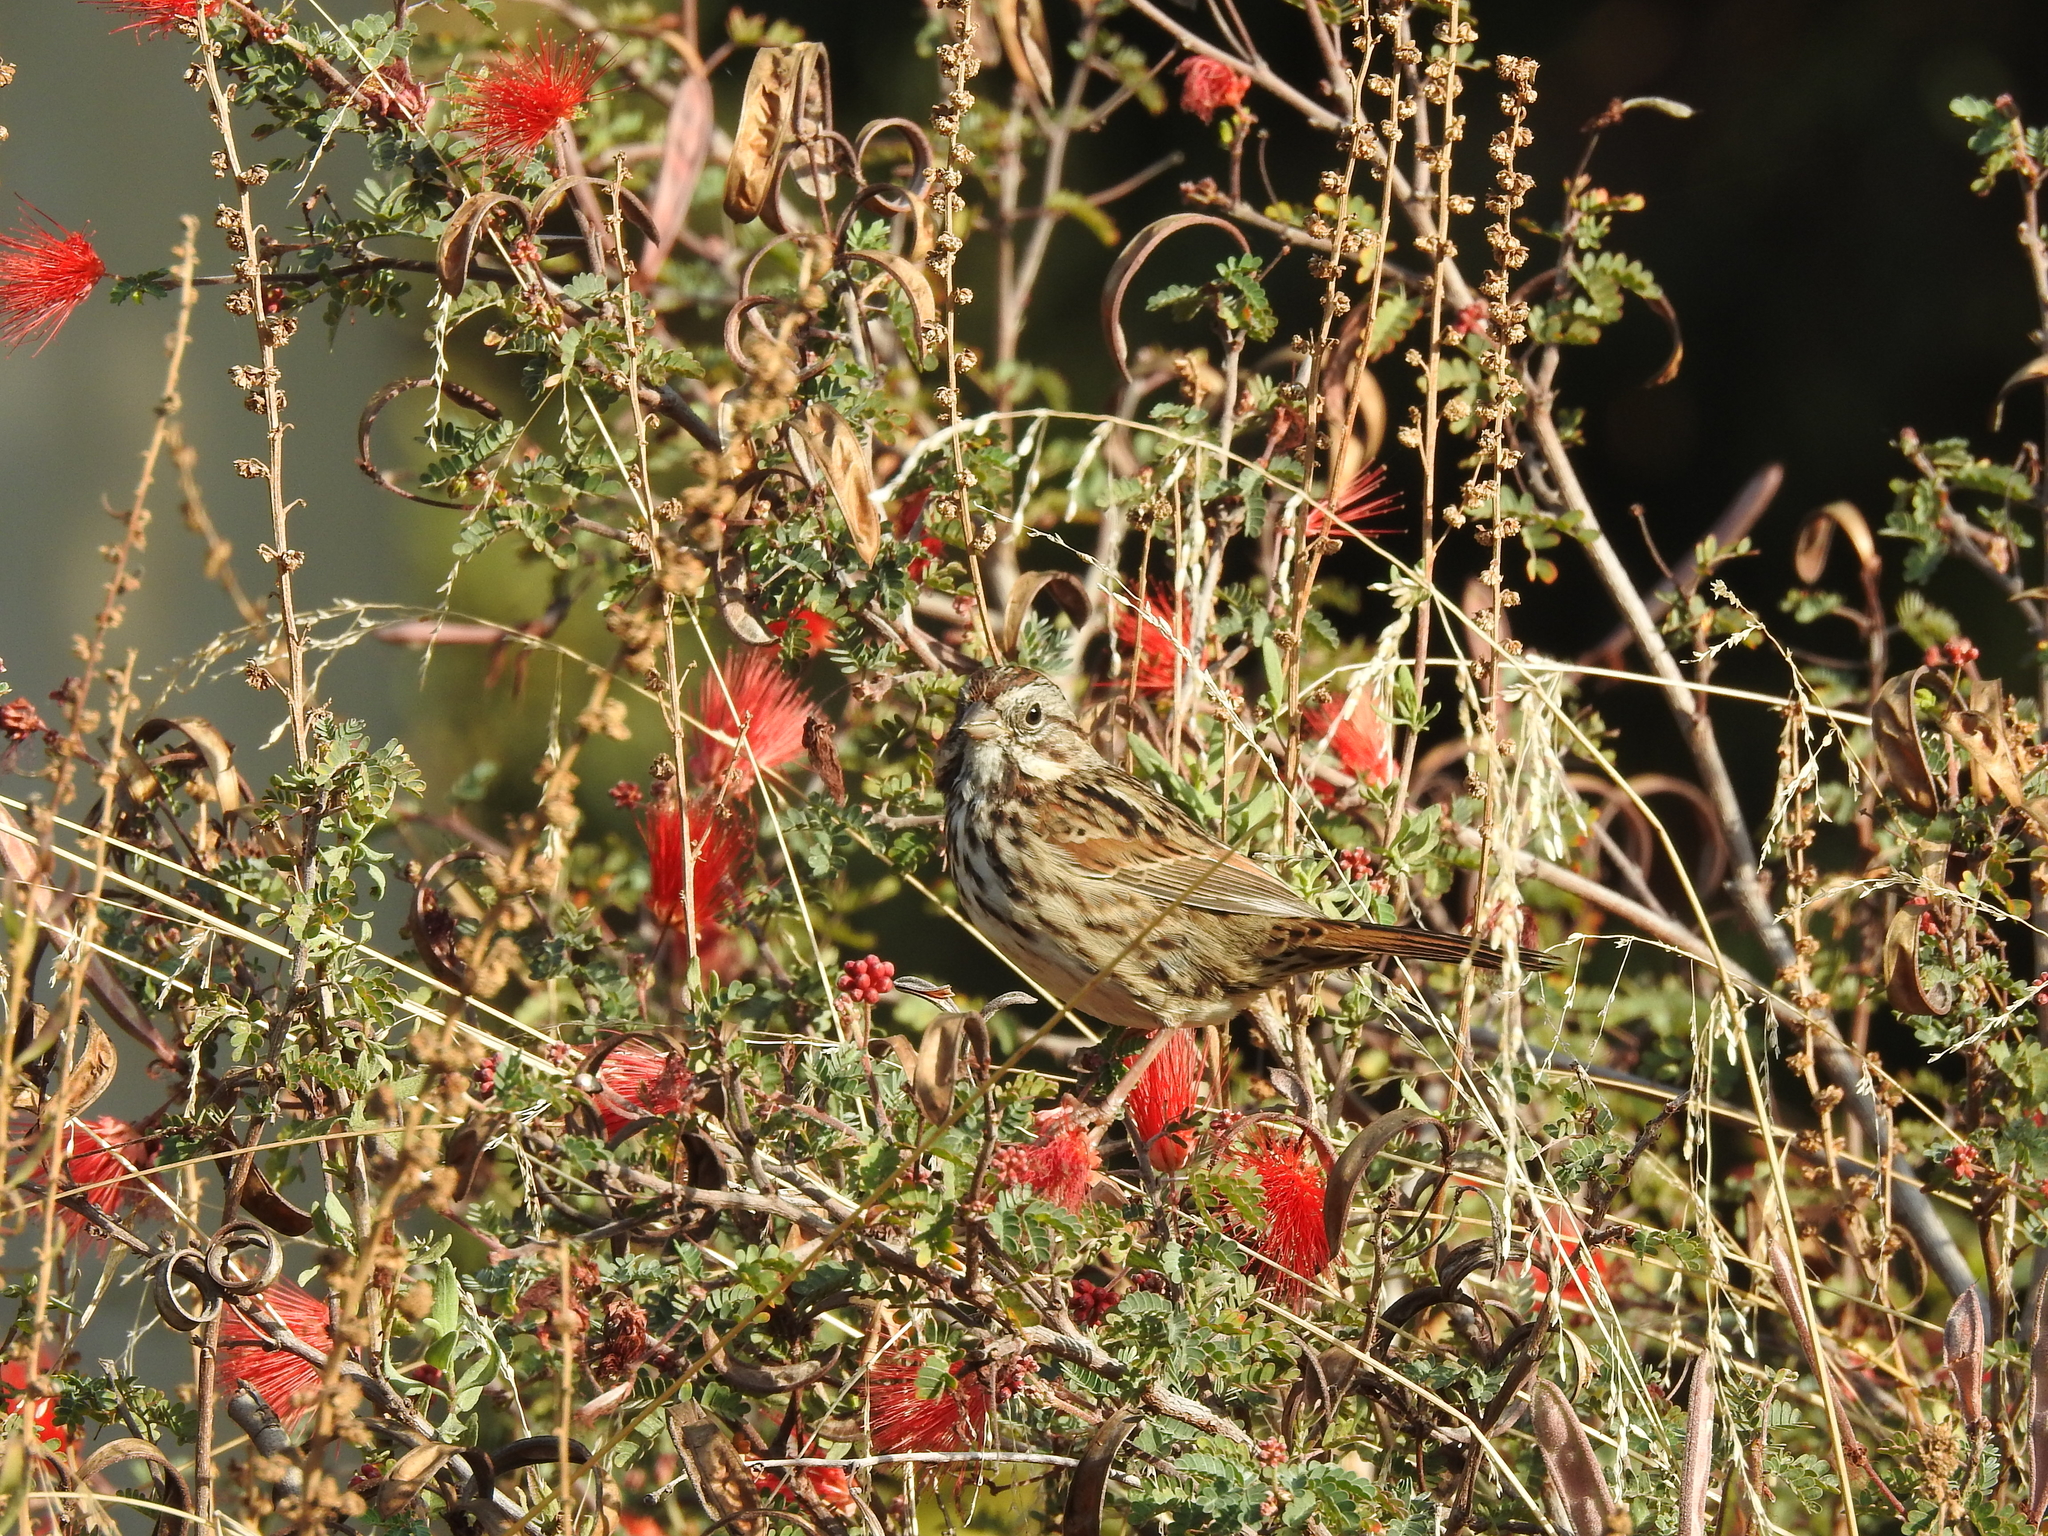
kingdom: Animalia
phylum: Chordata
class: Aves
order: Passeriformes
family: Passerellidae
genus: Melospiza
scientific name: Melospiza melodia
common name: Song sparrow
